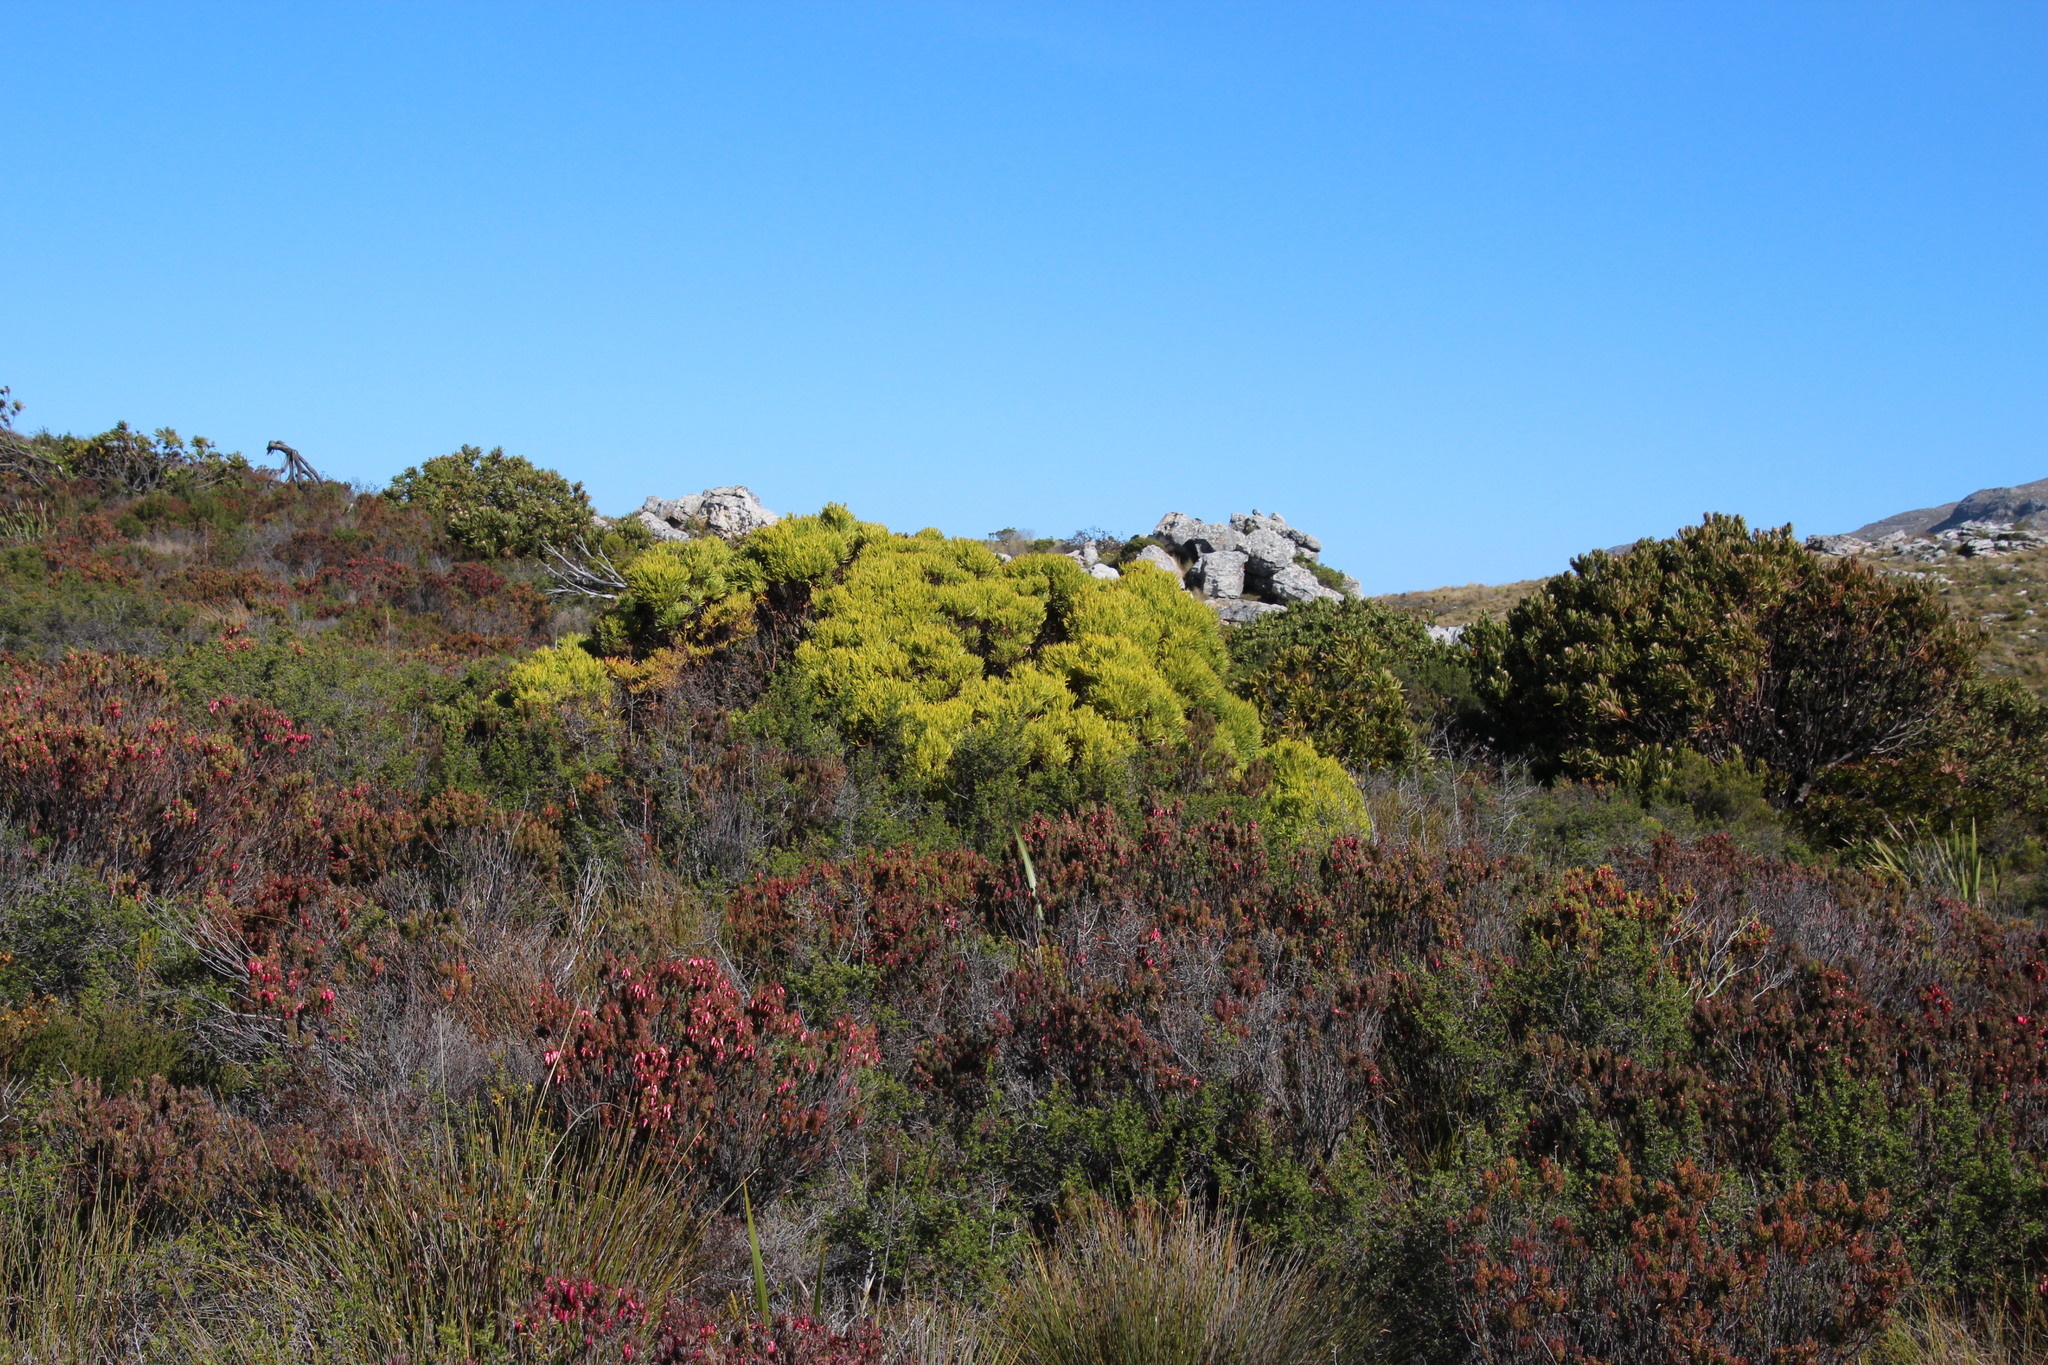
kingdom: Plantae
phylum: Tracheophyta
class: Magnoliopsida
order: Proteales
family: Proteaceae
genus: Leucadendron
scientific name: Leucadendron xanthoconus
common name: Sickle-leaf conebush
